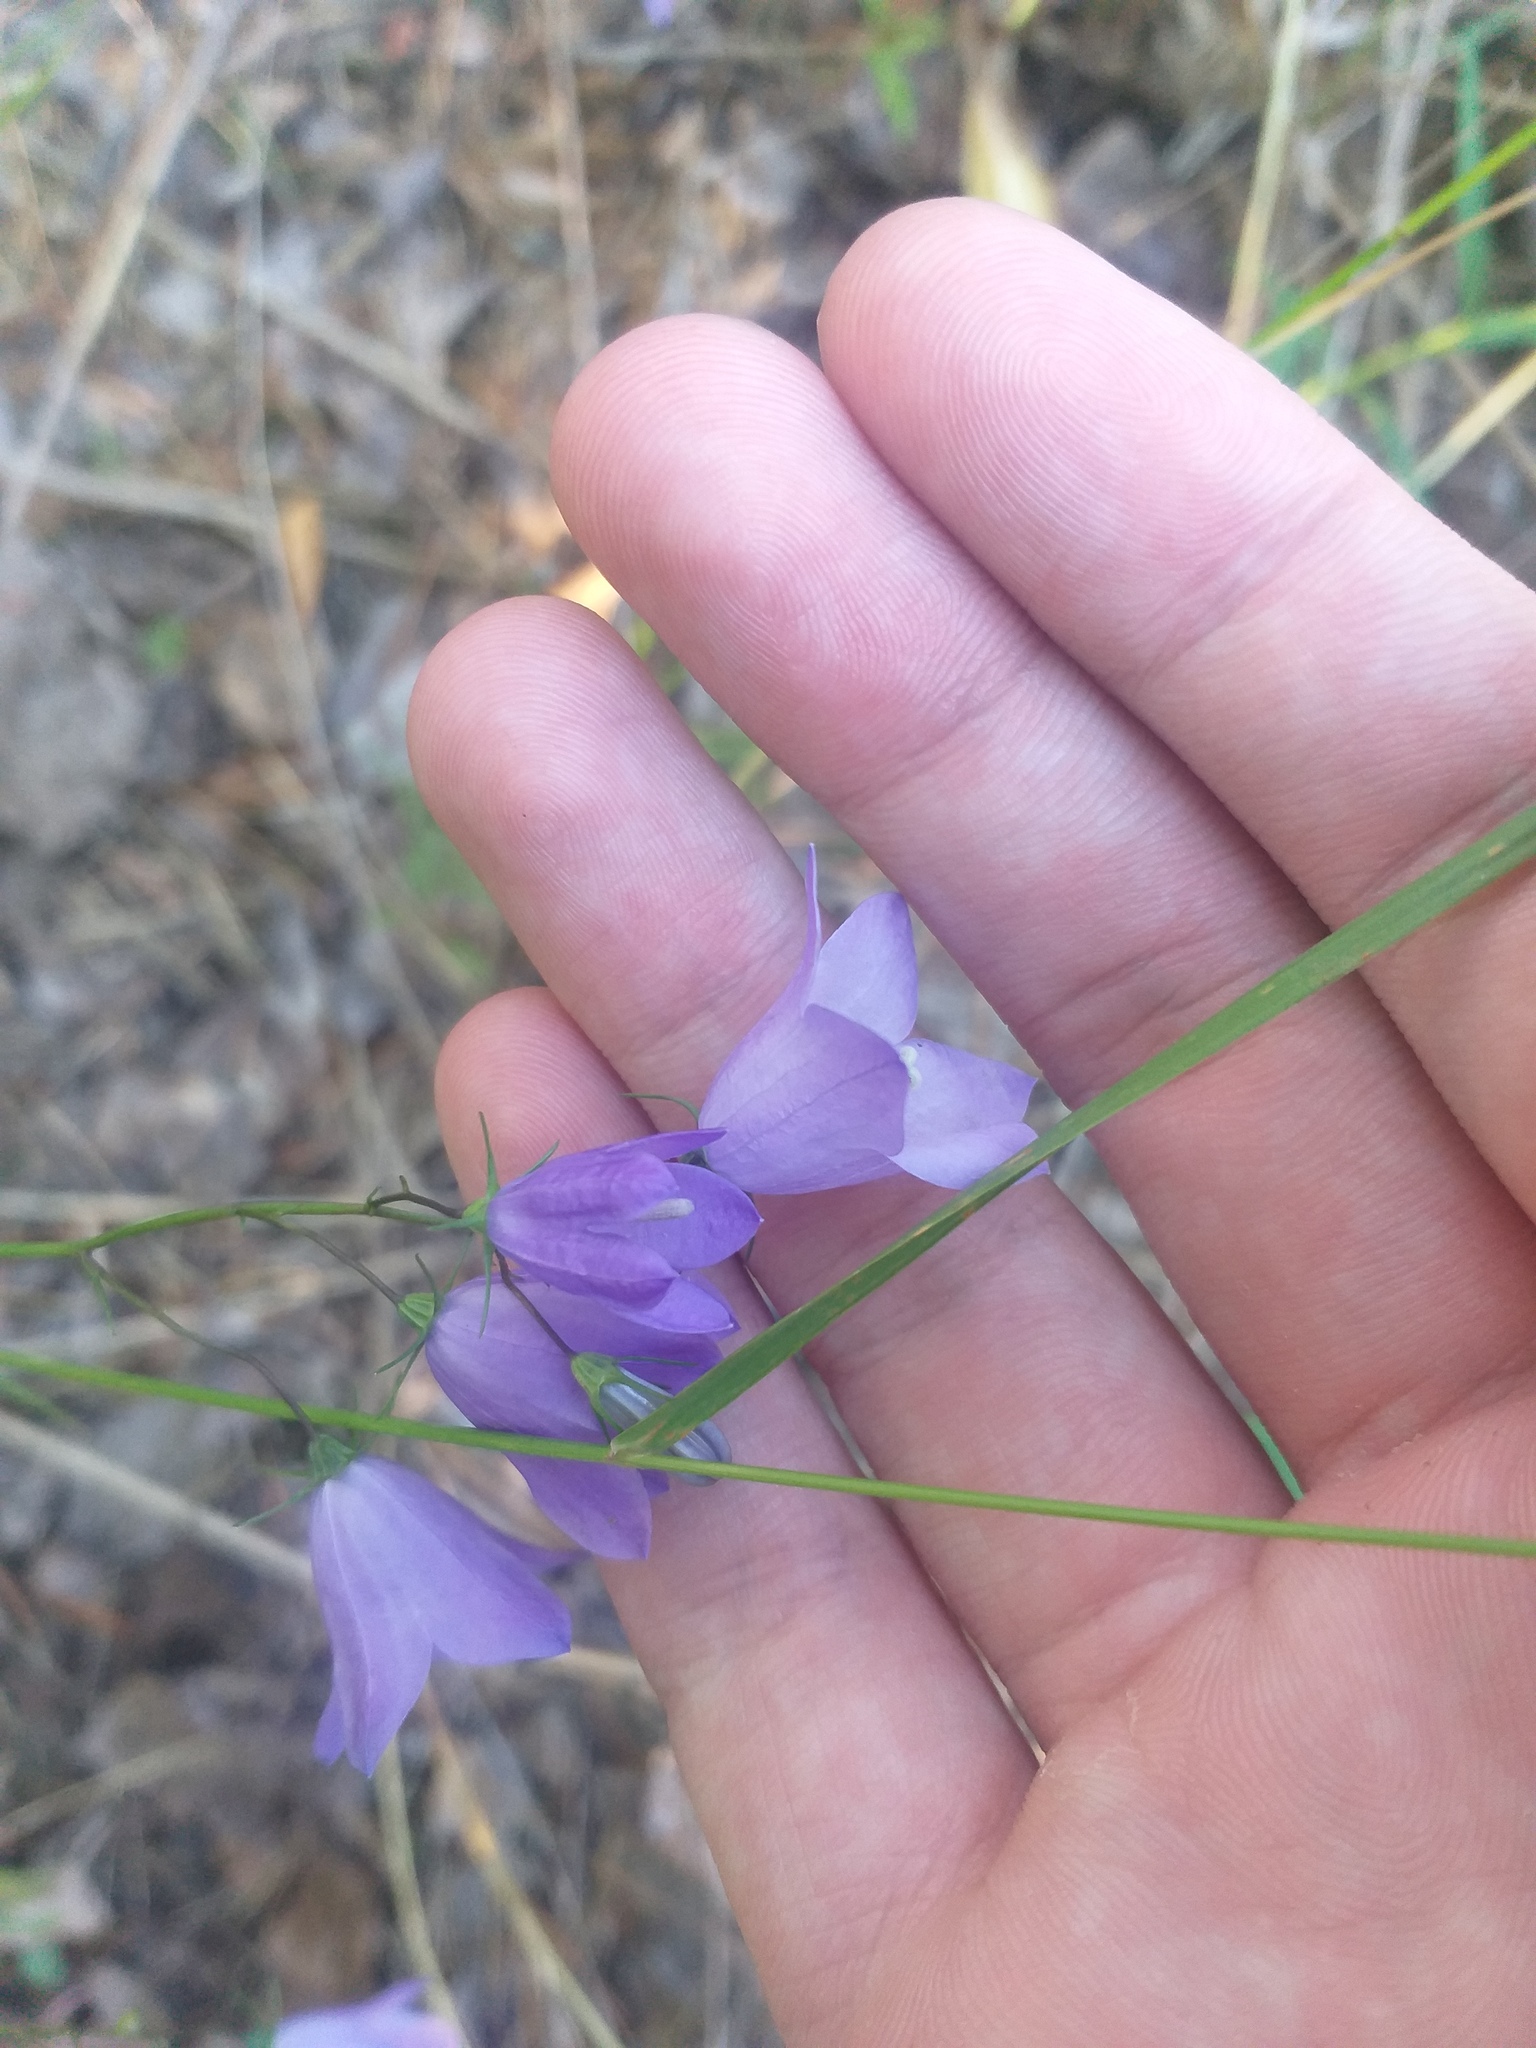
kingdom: Plantae
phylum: Tracheophyta
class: Magnoliopsida
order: Asterales
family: Campanulaceae
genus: Campanula
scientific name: Campanula rotundifolia
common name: Harebell
